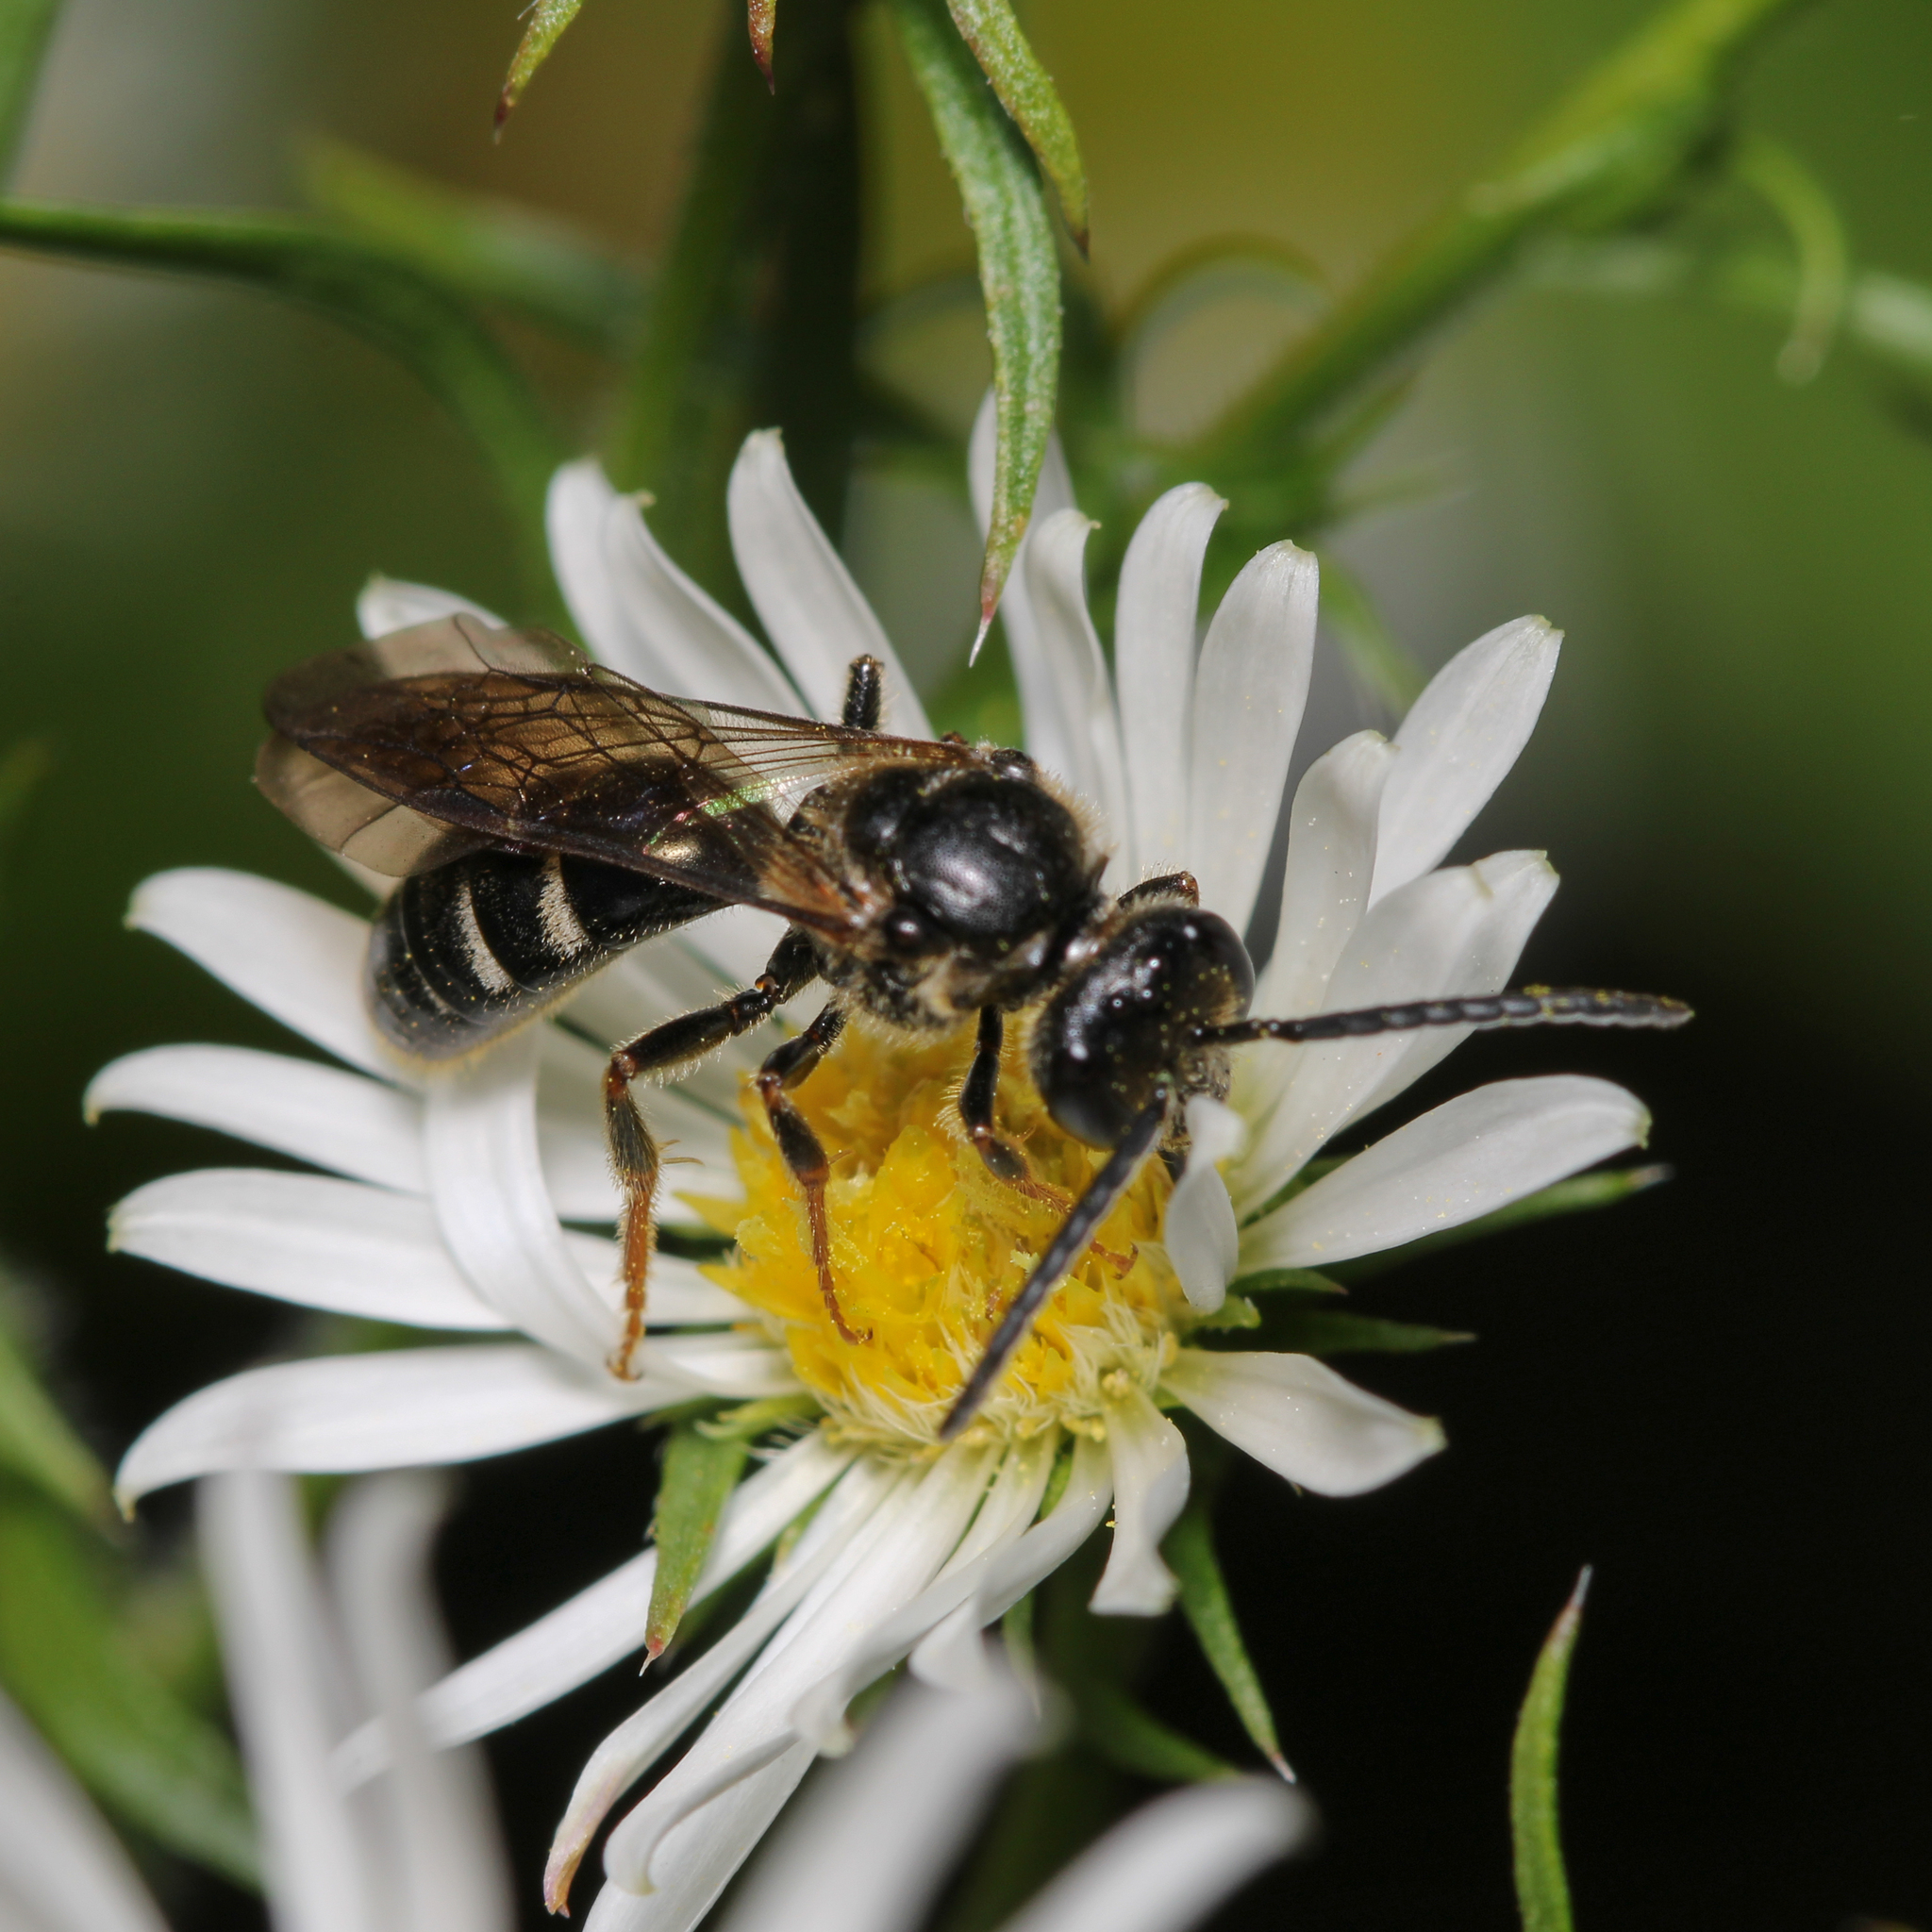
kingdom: Animalia
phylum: Arthropoda
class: Insecta
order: Hymenoptera
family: Halictidae
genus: Lasioglossum
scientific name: Lasioglossum fuscipenne
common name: Brown-winged sweat bee
